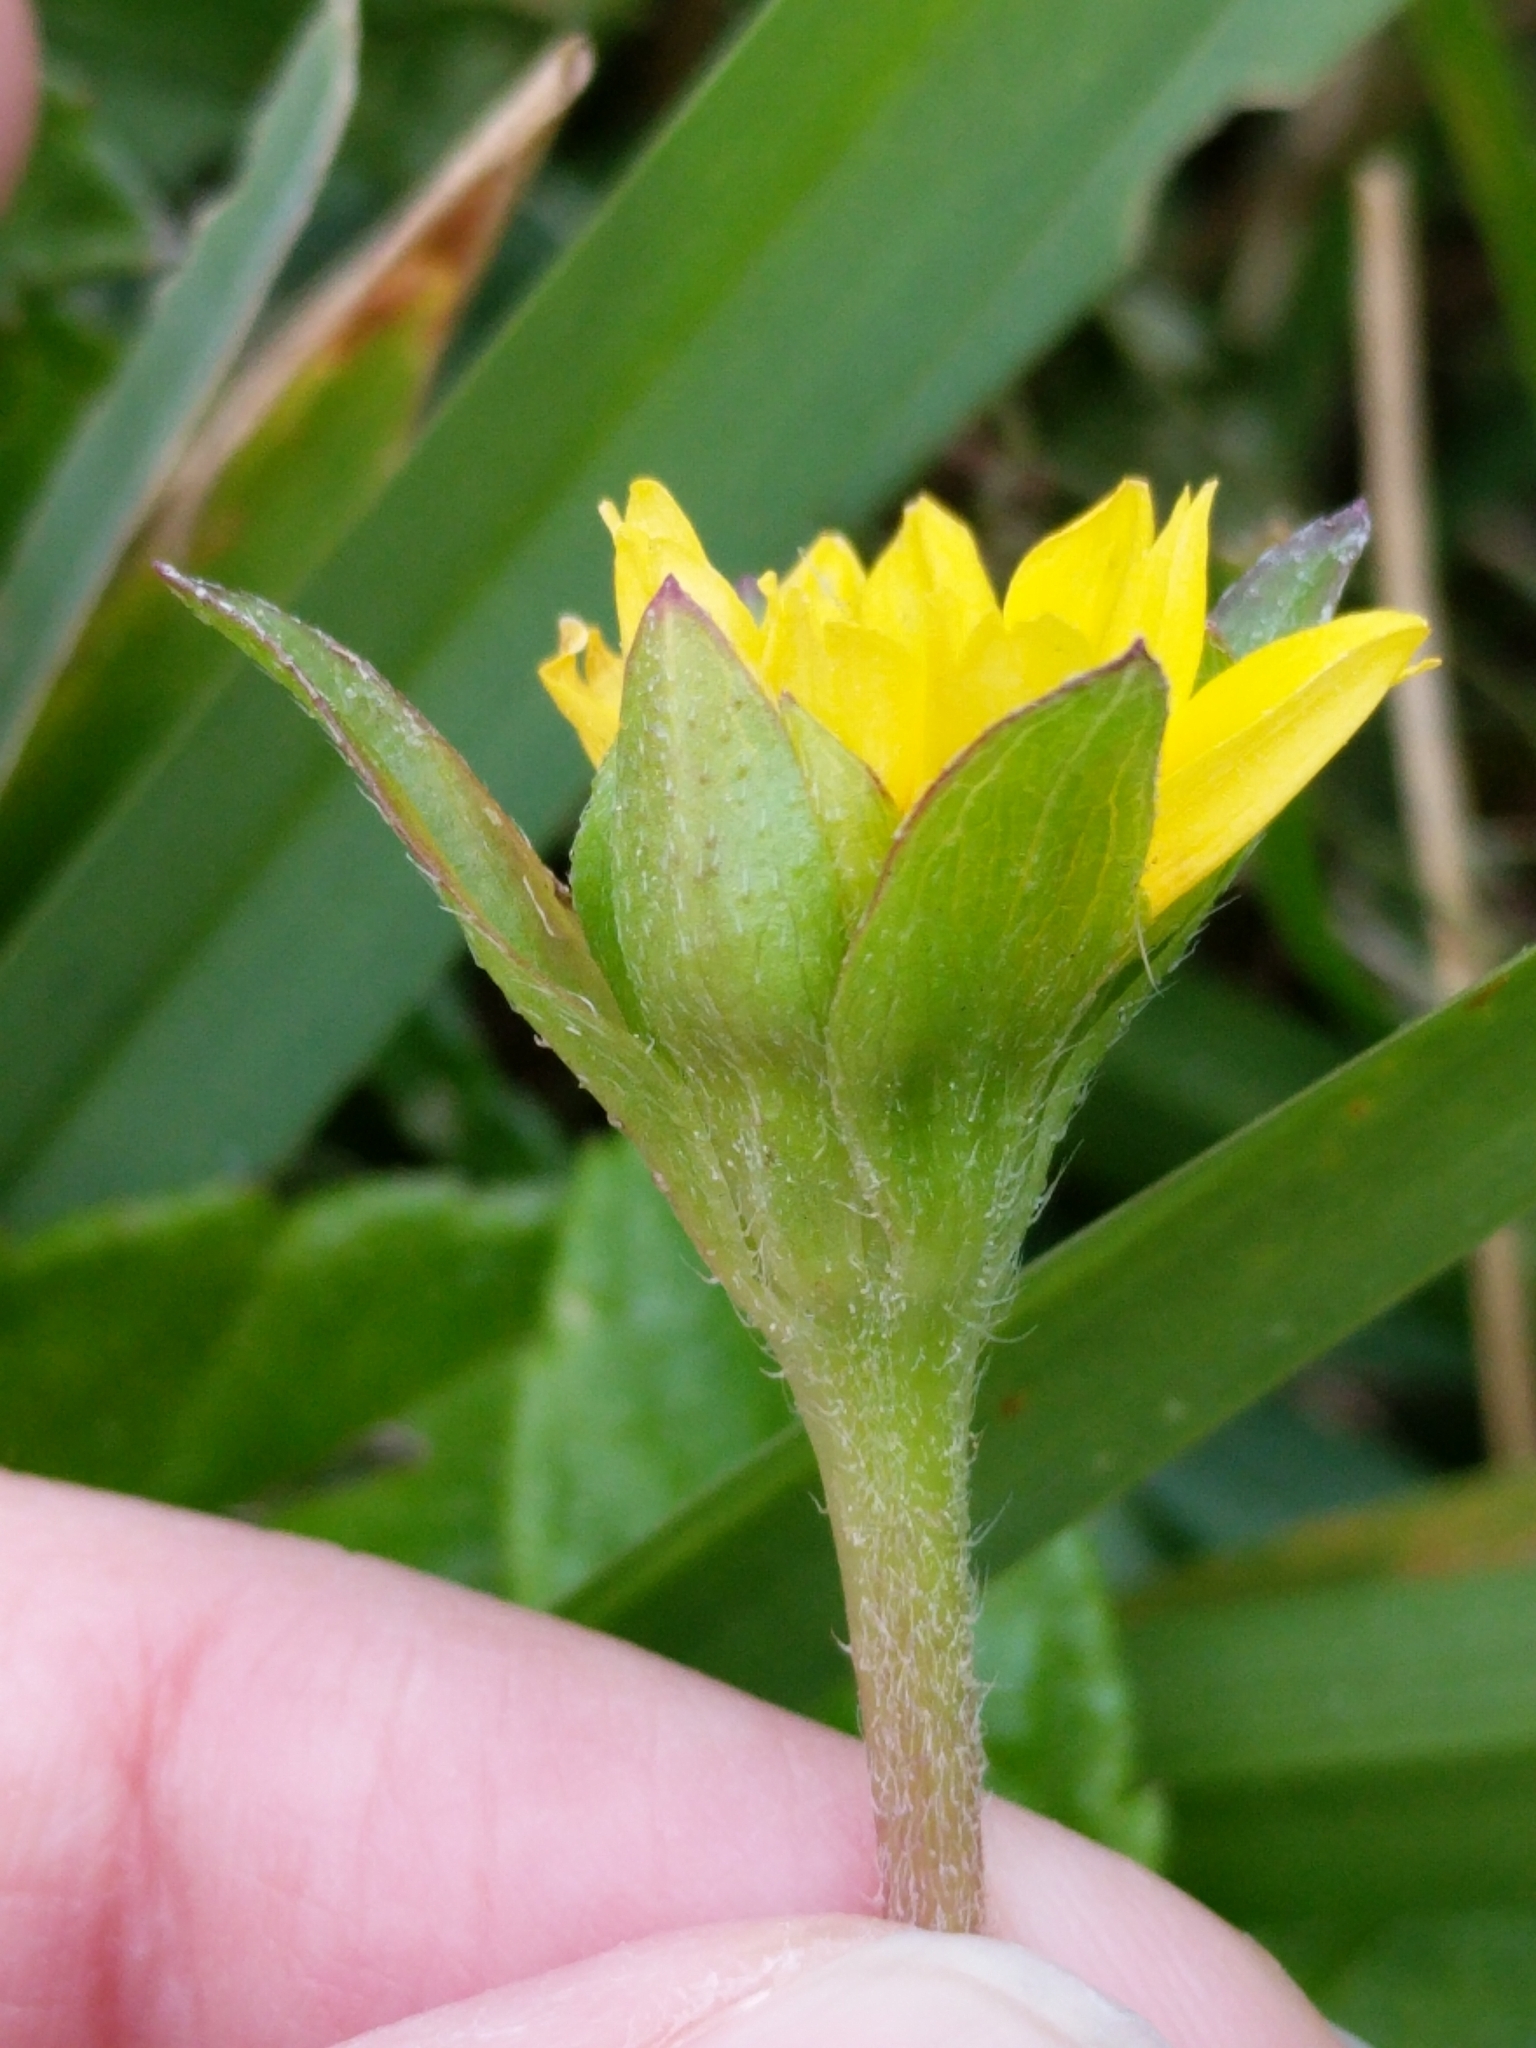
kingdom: Plantae
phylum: Tracheophyta
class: Magnoliopsida
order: Asterales
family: Asteraceae
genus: Sphagneticola
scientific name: Sphagneticola trilobata
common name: Bay biscayne creeping-oxeye
